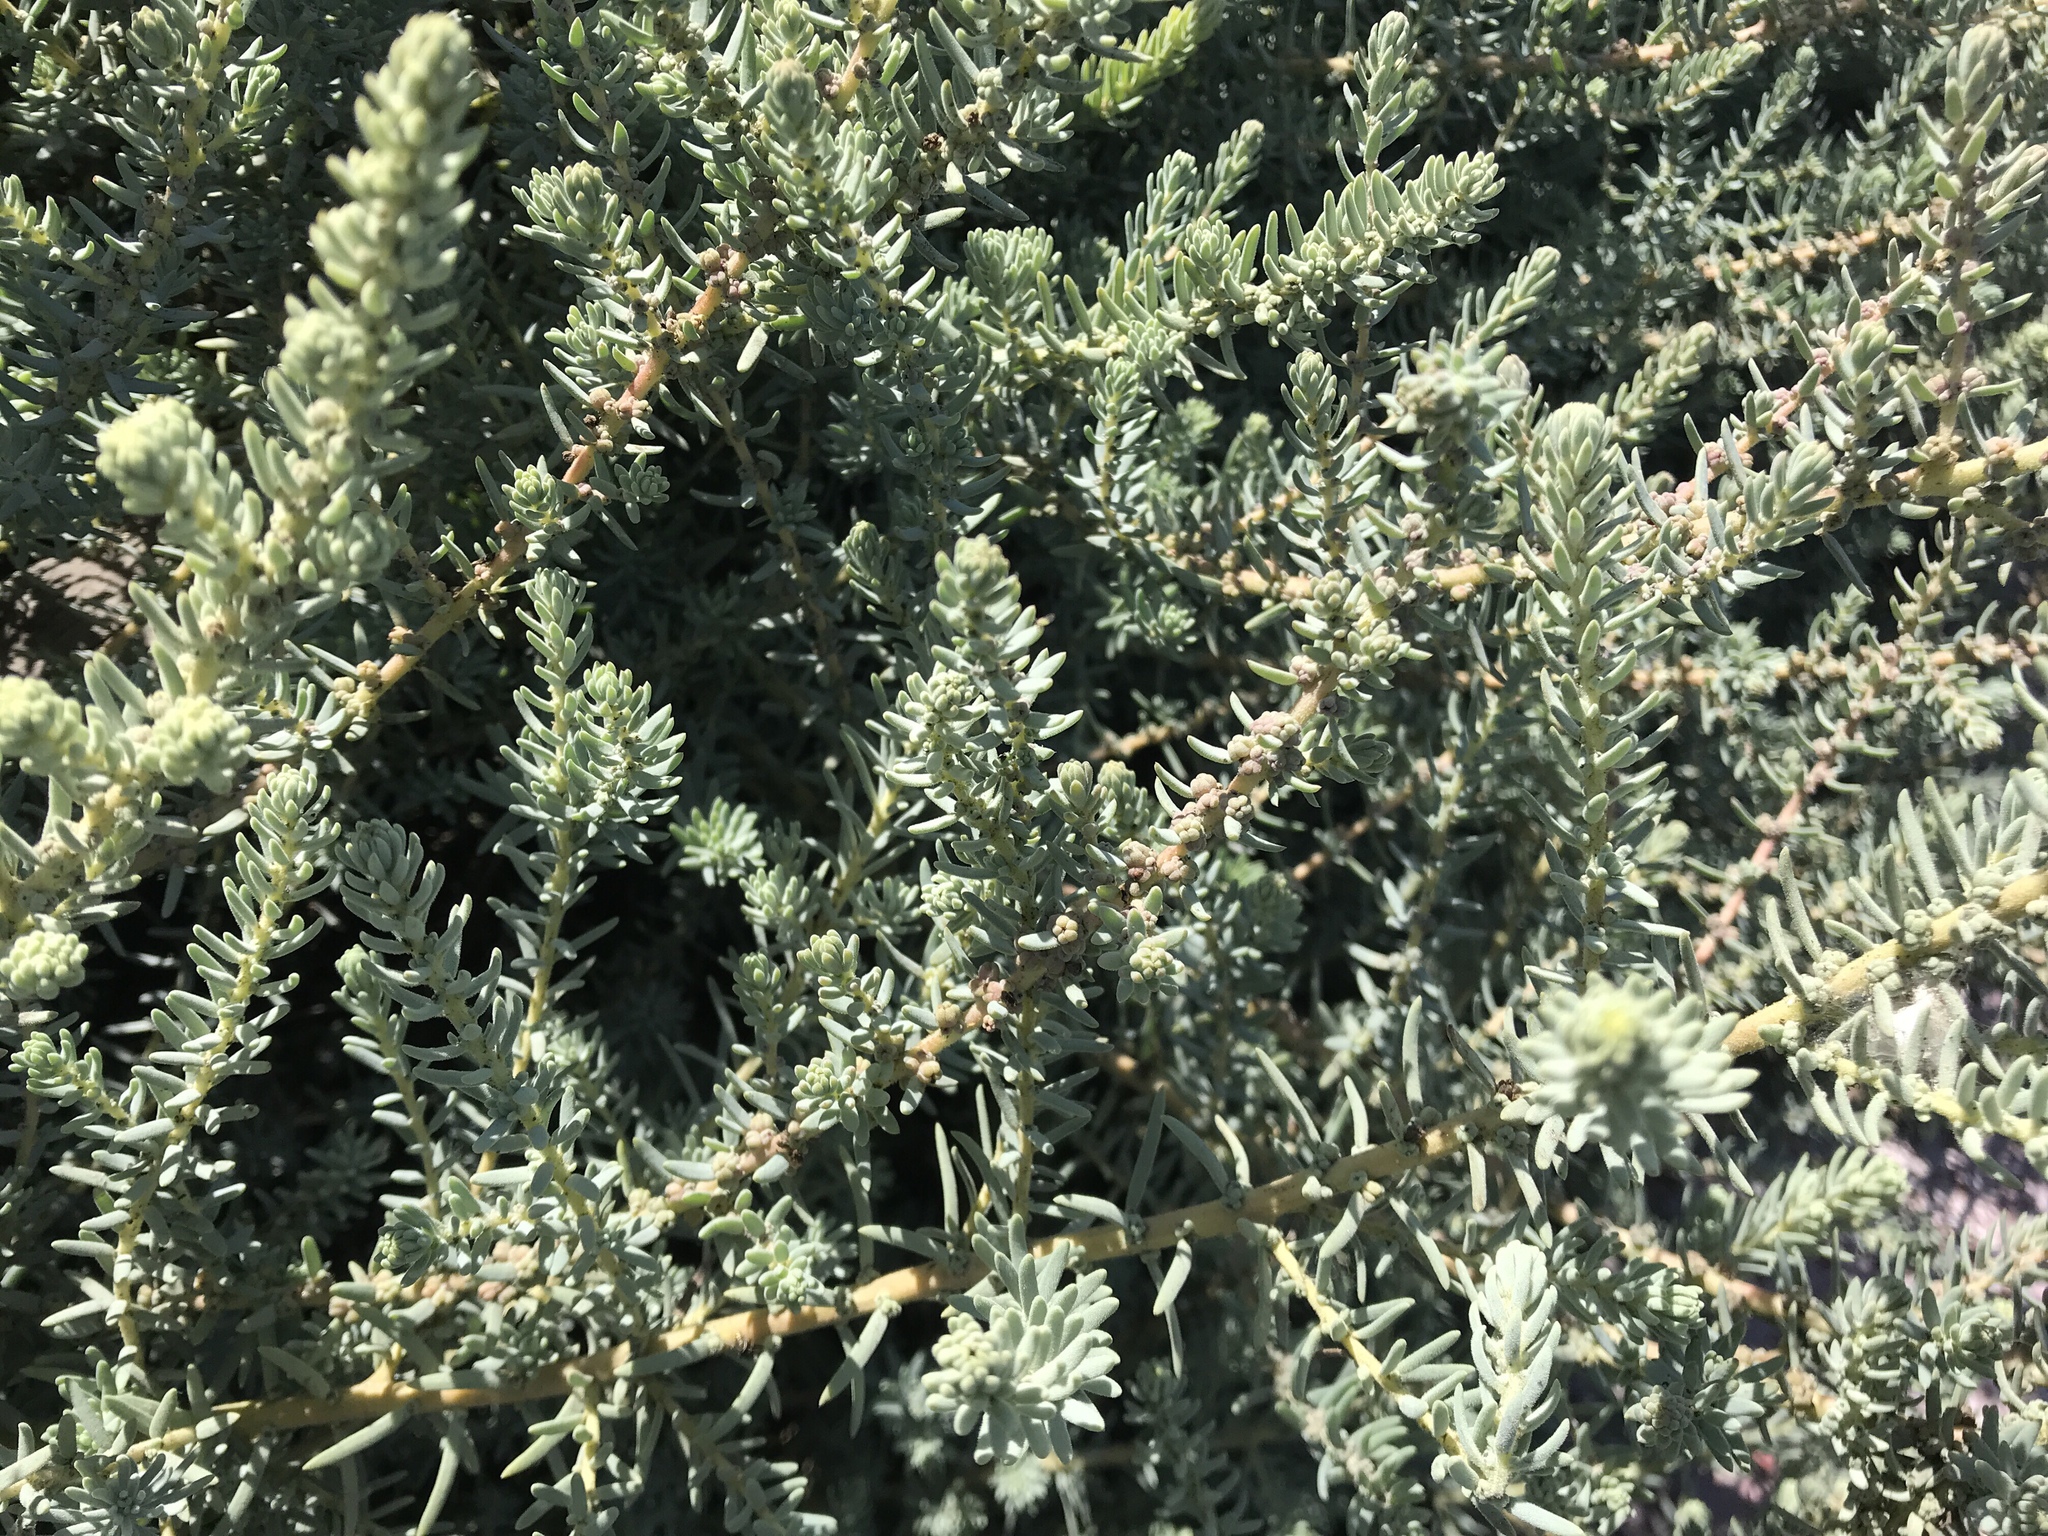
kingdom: Plantae
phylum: Tracheophyta
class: Magnoliopsida
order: Caryophyllales
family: Amaranthaceae
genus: Suaeda
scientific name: Suaeda taxifolia
